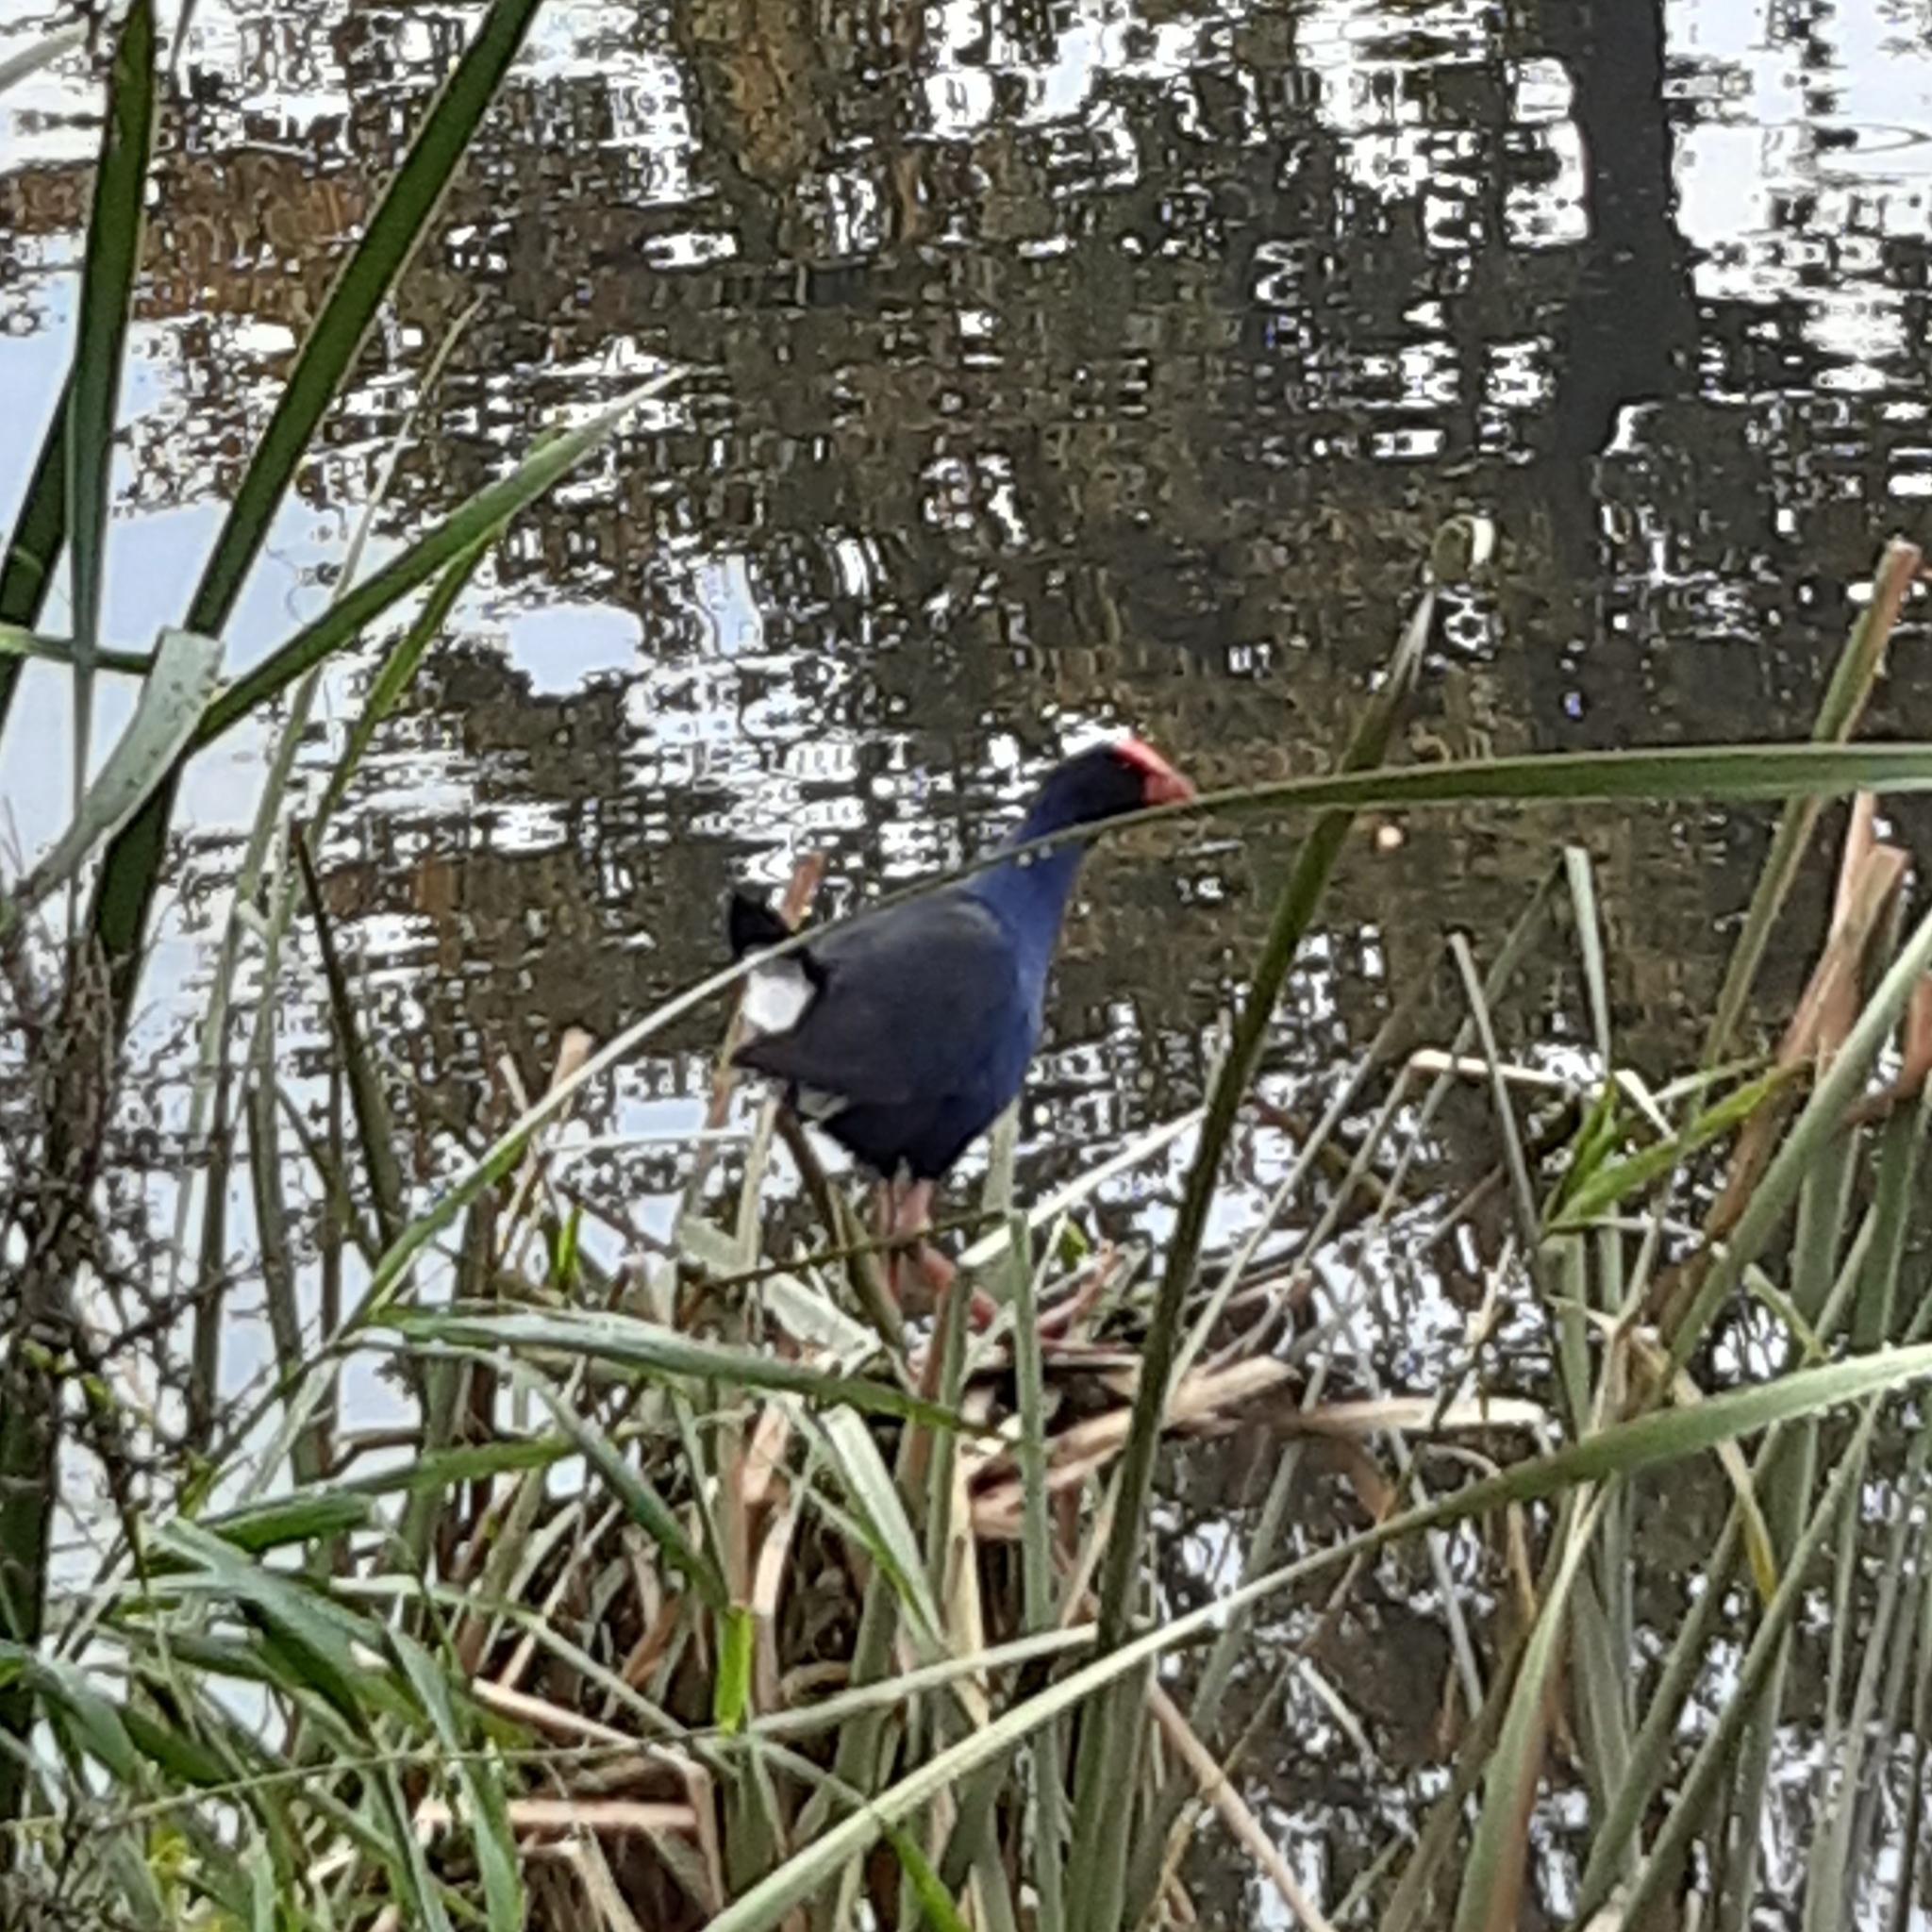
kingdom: Animalia
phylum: Chordata
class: Aves
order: Gruiformes
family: Rallidae
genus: Porphyrio
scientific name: Porphyrio melanotus
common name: Australasian swamphen
